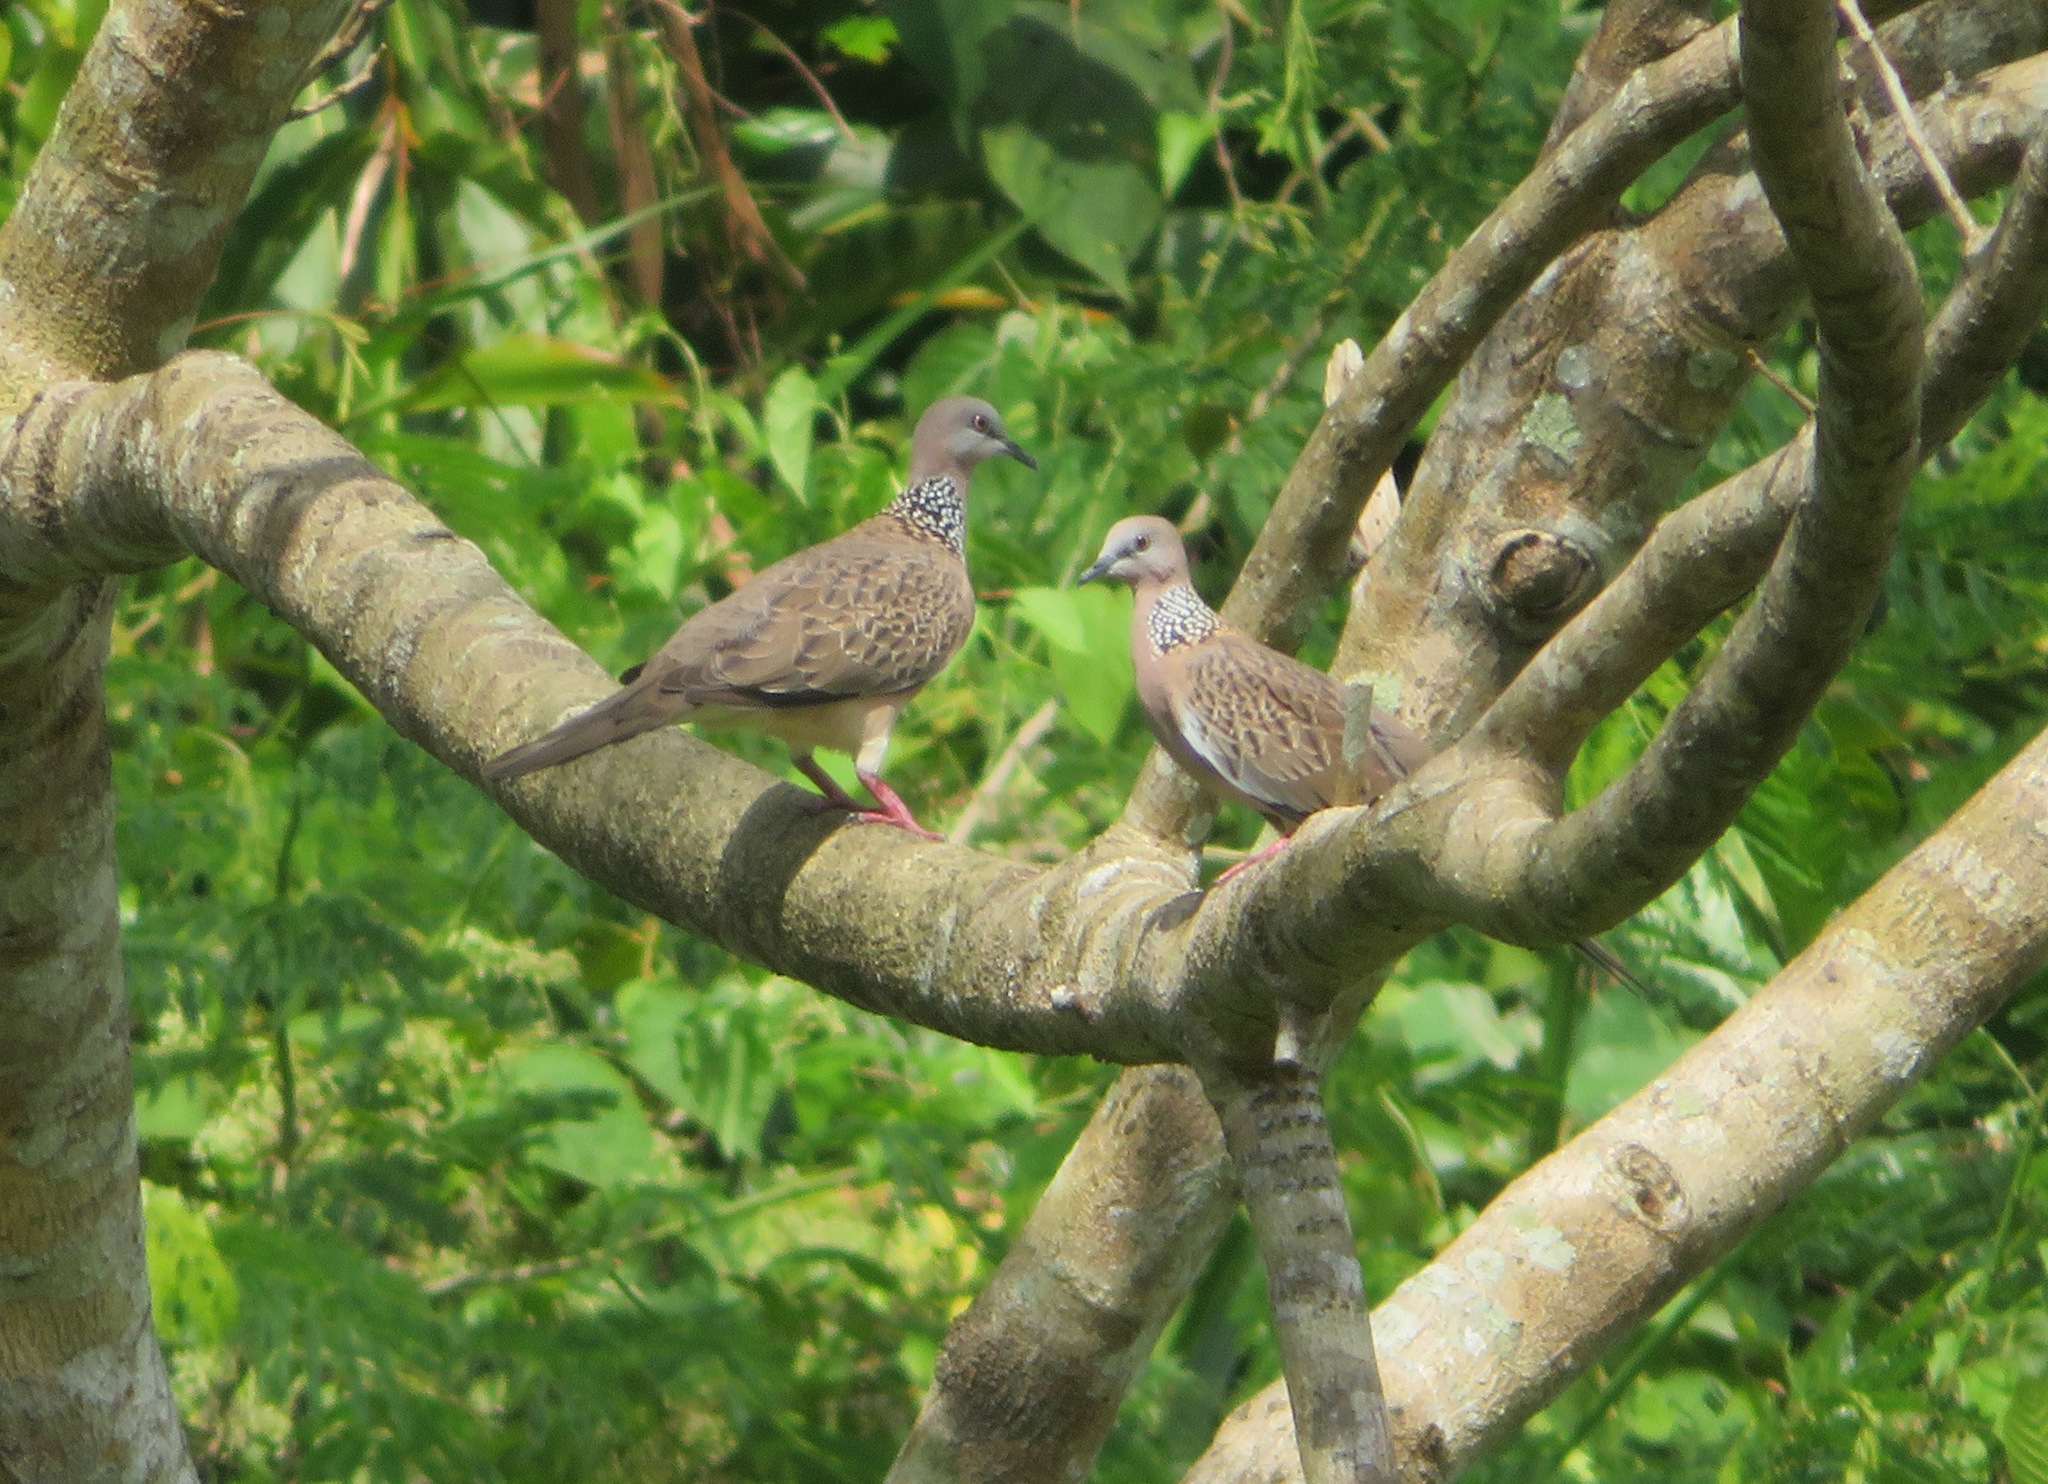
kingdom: Animalia
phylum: Chordata
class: Aves
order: Columbiformes
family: Columbidae
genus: Spilopelia
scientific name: Spilopelia chinensis
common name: Spotted dove
